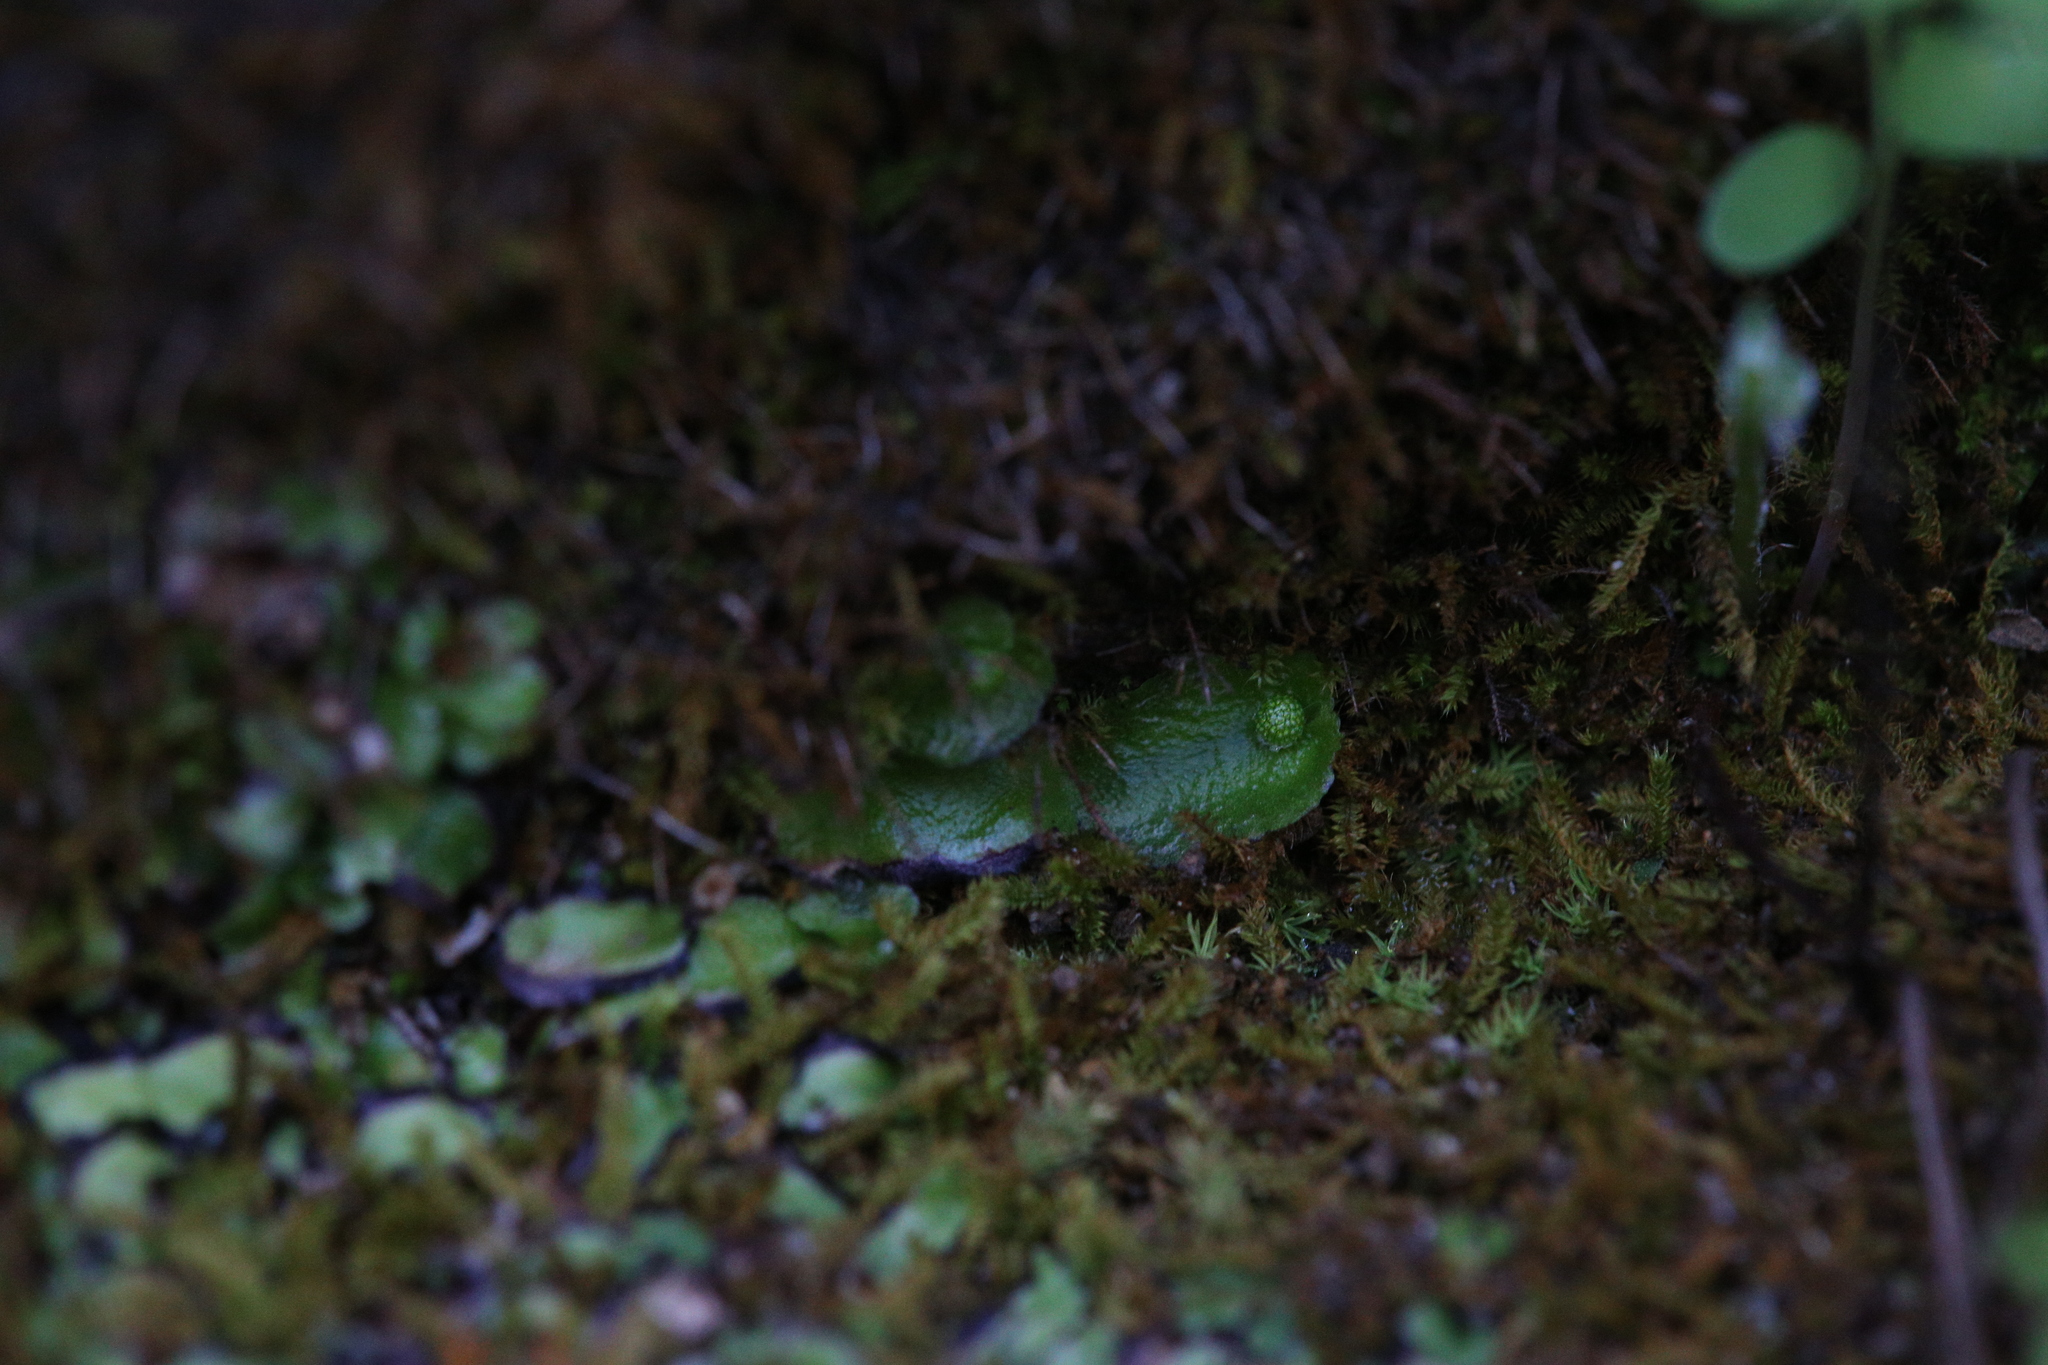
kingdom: Plantae
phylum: Marchantiophyta
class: Marchantiopsida
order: Marchantiales
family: Aytoniaceae
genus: Asterella
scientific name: Asterella drummondii
